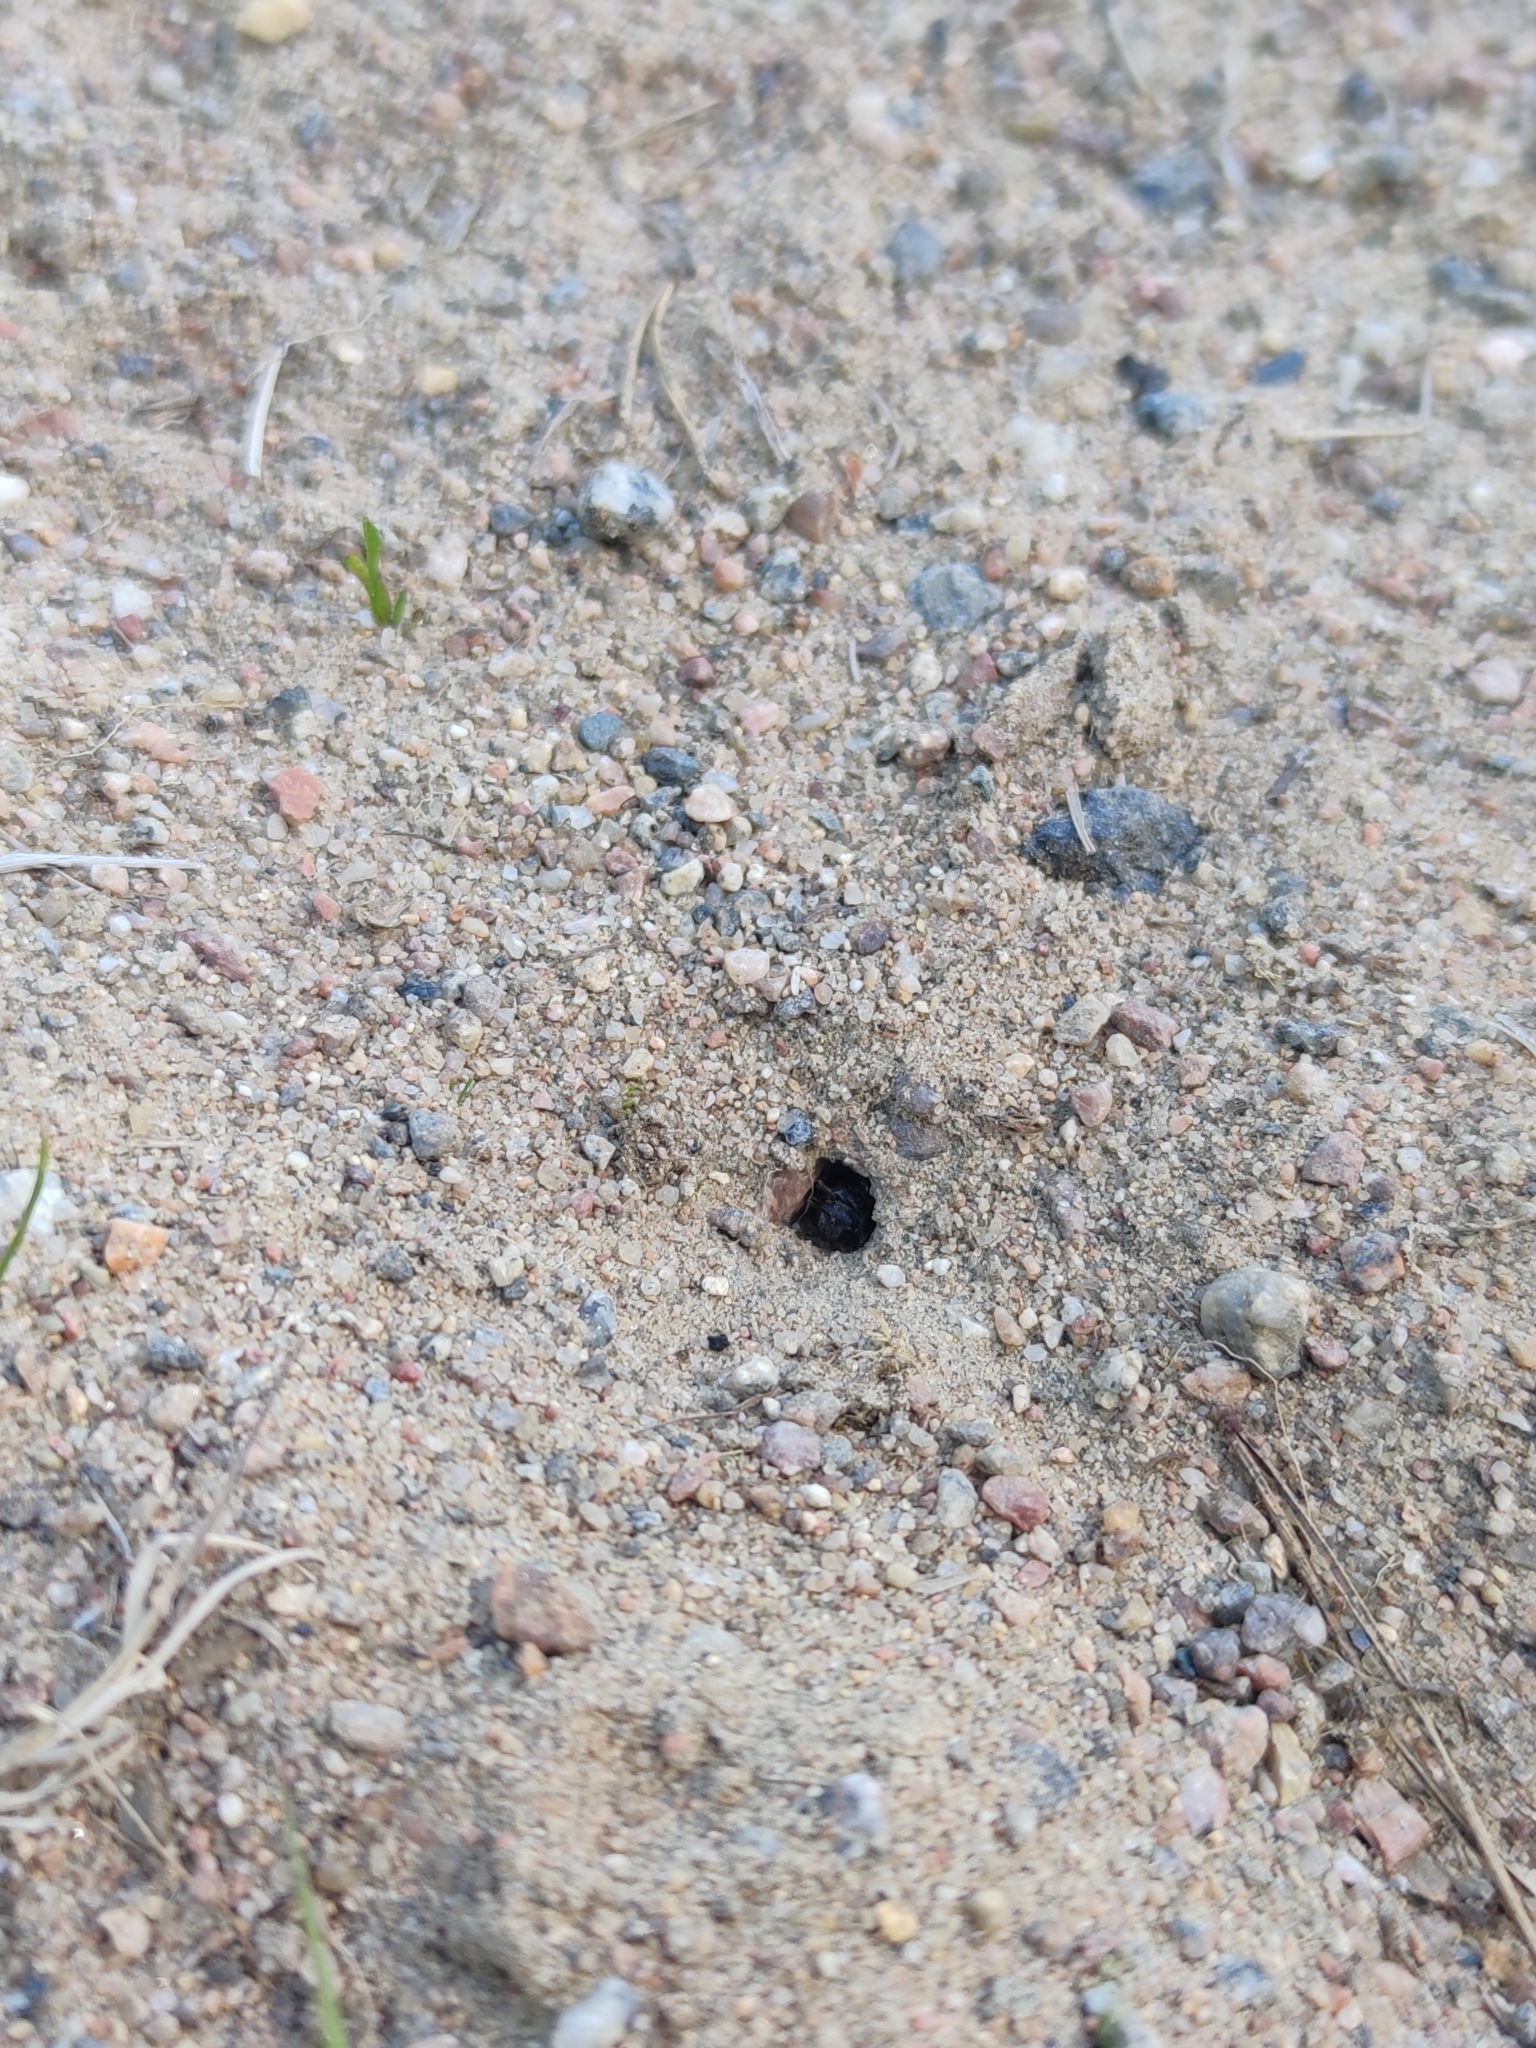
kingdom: Animalia
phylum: Arthropoda
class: Insecta
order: Hymenoptera
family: Pompilidae
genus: Anoplius
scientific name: Anoplius viaticus
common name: Black banded spider wasp
